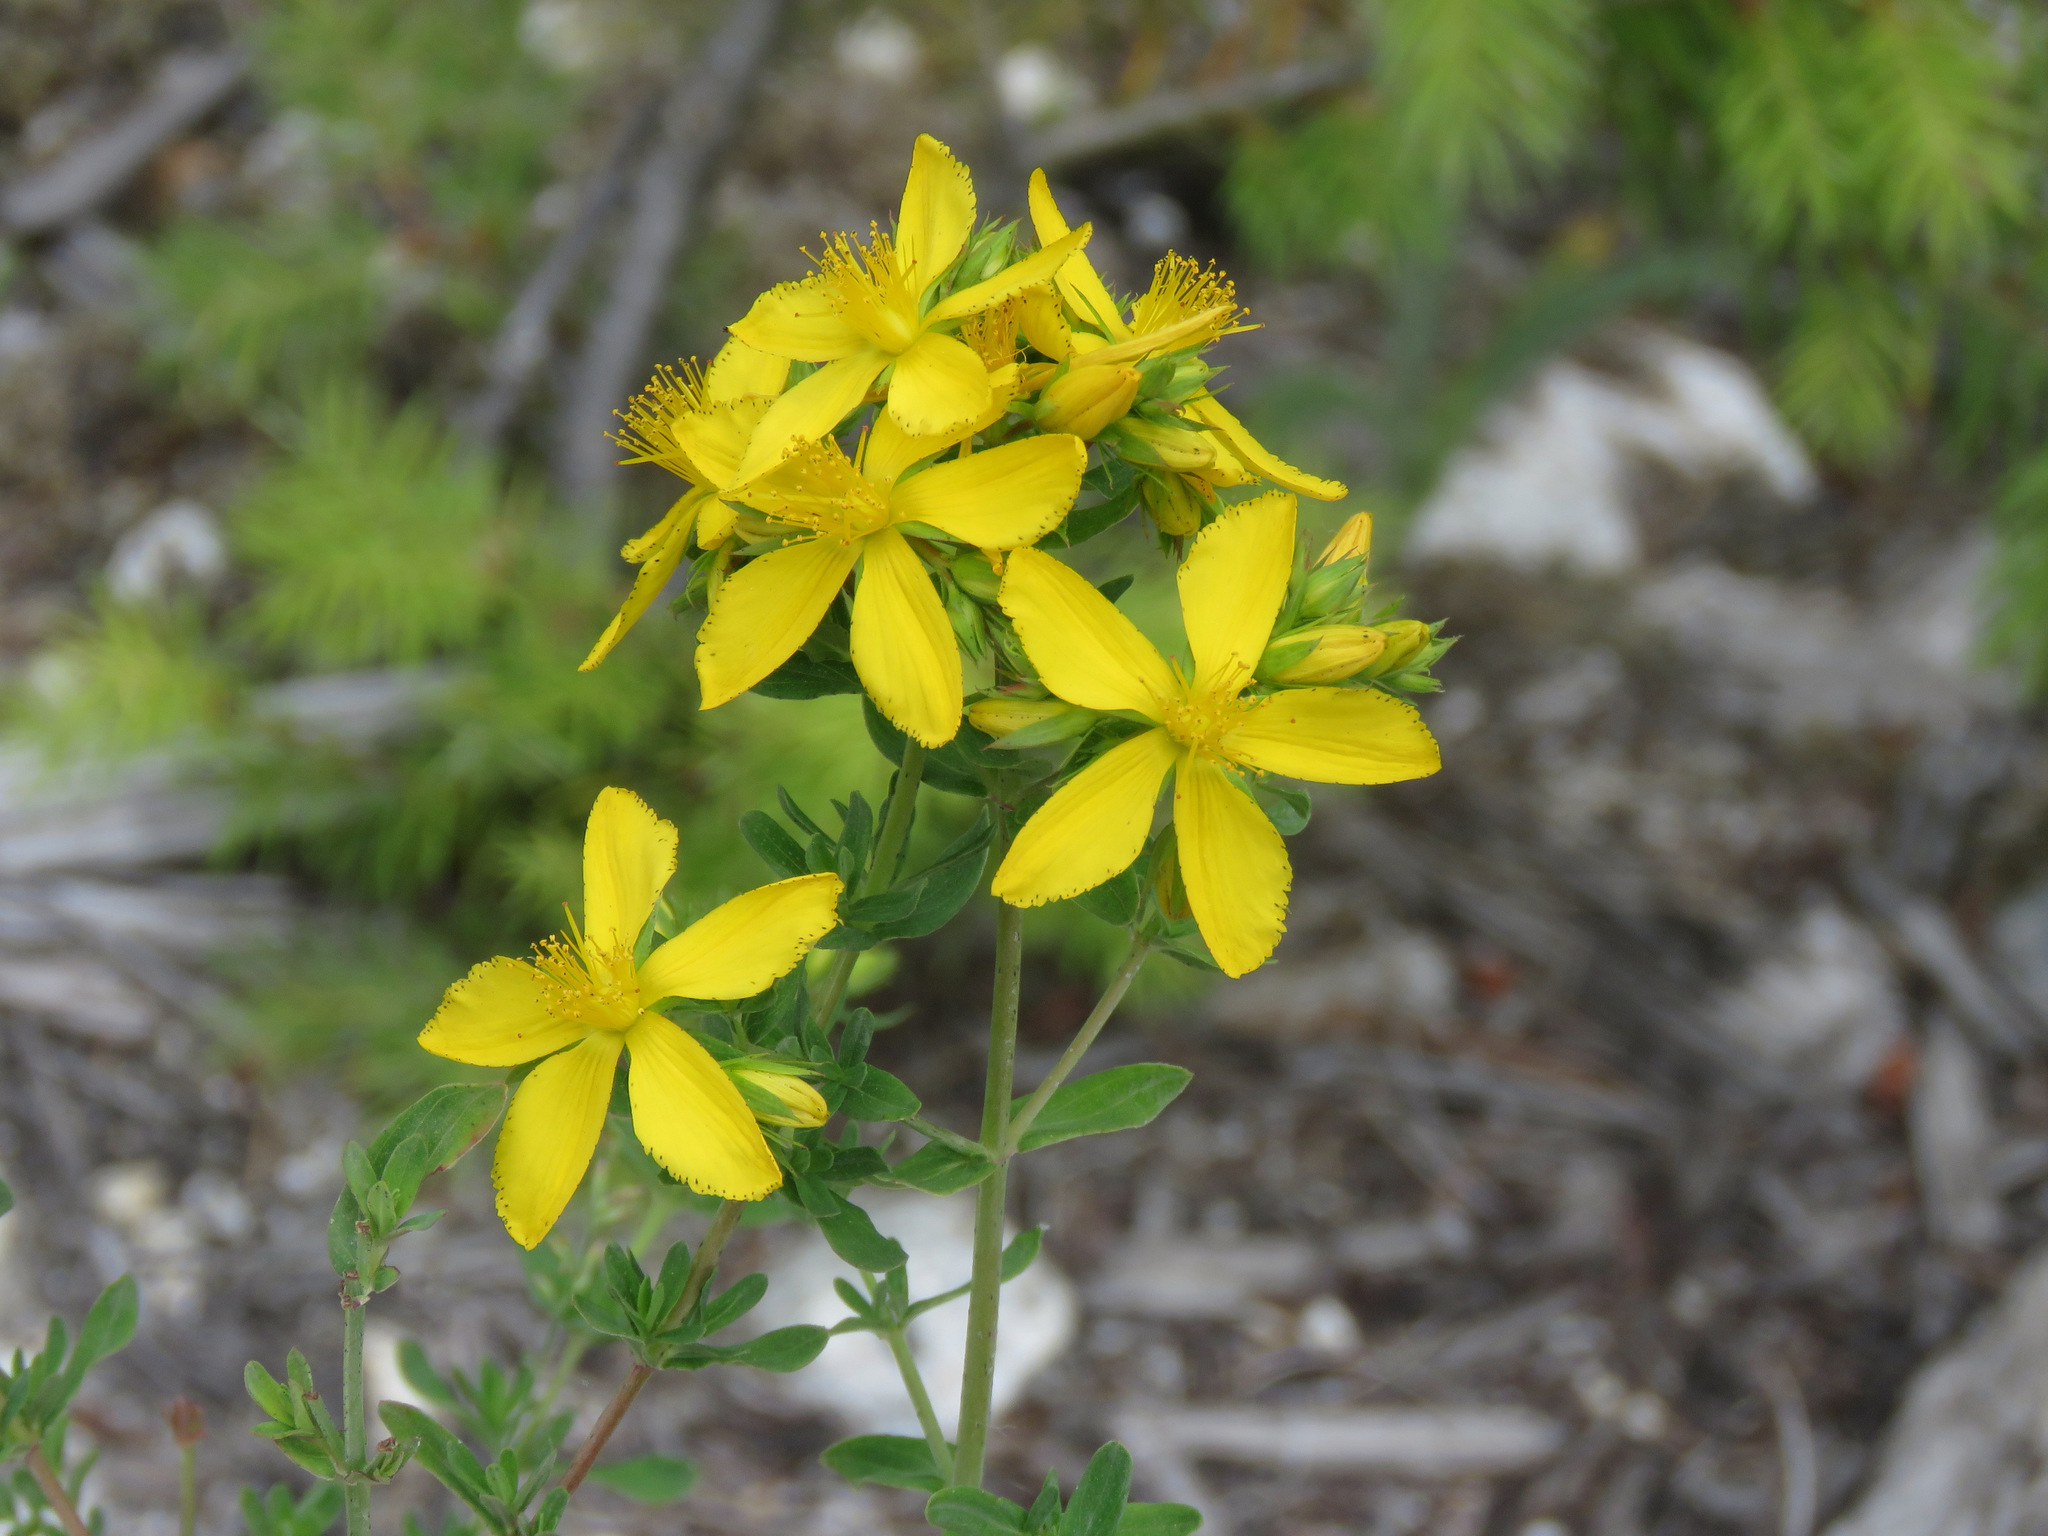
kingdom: Plantae
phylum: Tracheophyta
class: Magnoliopsida
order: Malpighiales
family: Hypericaceae
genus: Hypericum
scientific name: Hypericum perforatum
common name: Common st. johnswort
